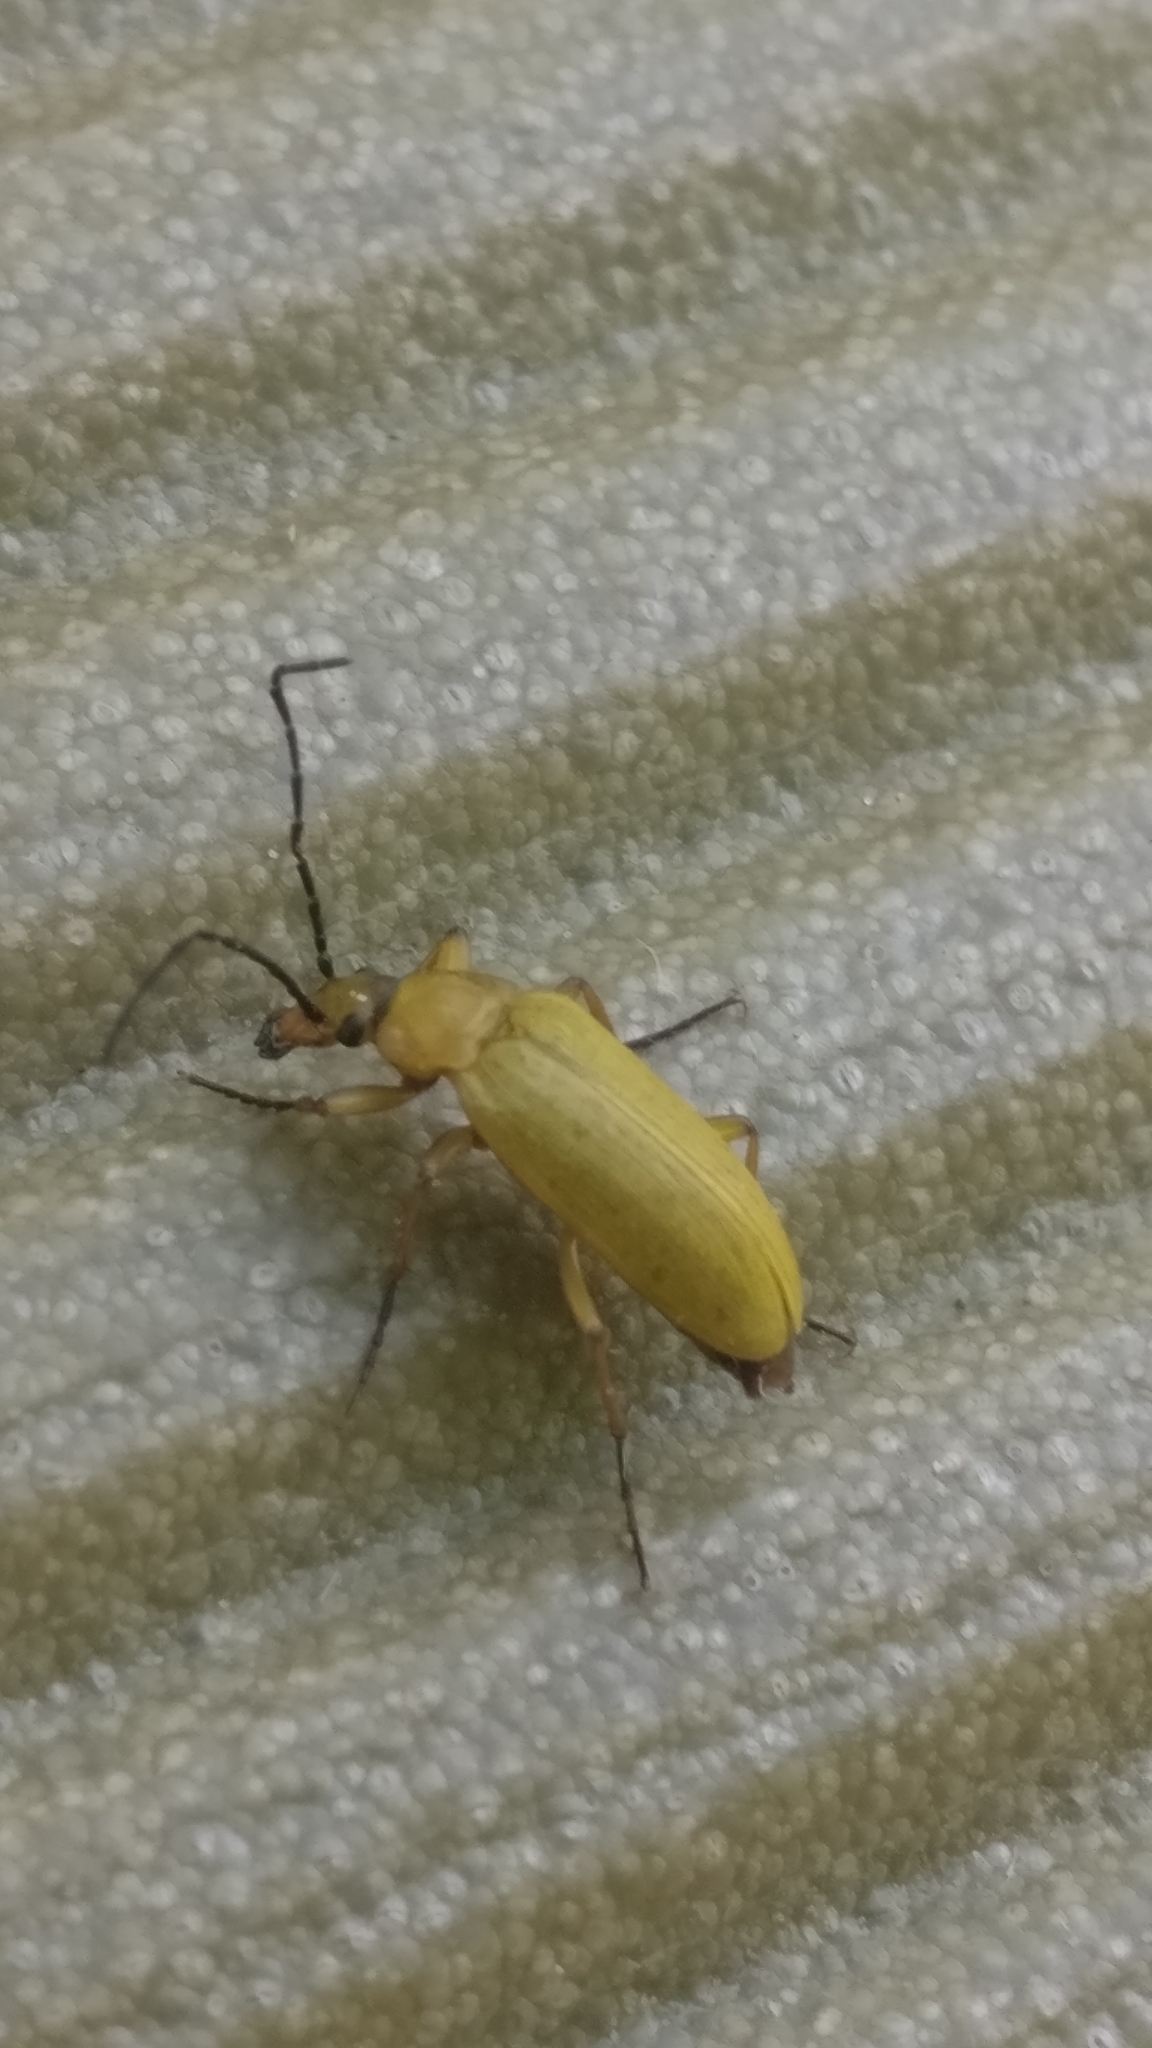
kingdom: Animalia
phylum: Arthropoda
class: Insecta
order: Coleoptera
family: Tenebrionidae
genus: Cteniopus
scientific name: Cteniopus sulphureus
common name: Sulphur beetle
